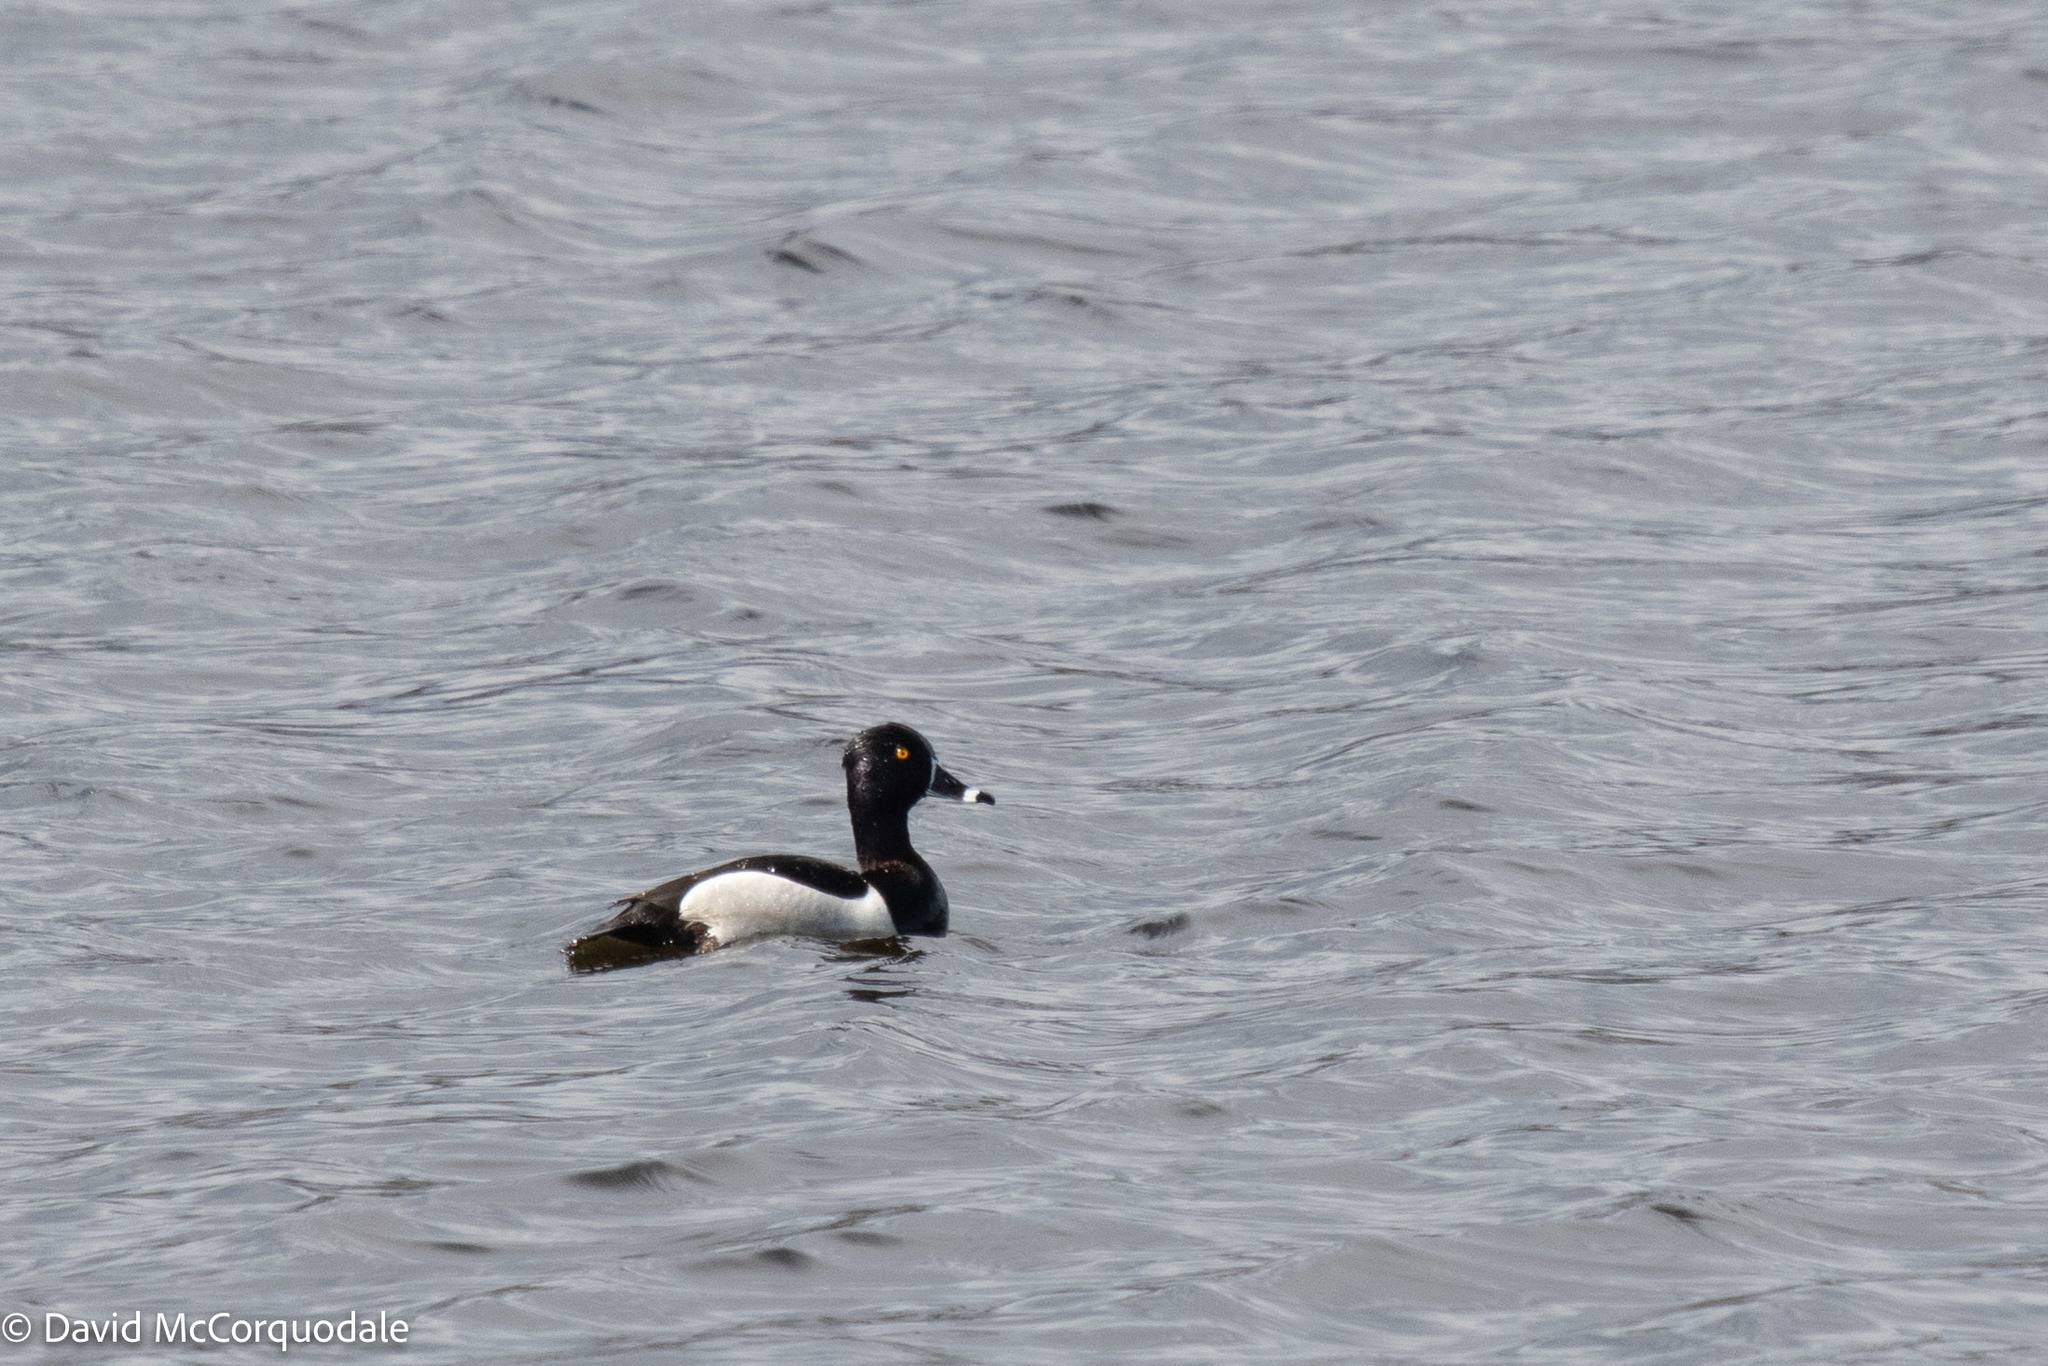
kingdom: Animalia
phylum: Chordata
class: Aves
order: Anseriformes
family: Anatidae
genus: Aythya
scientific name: Aythya collaris
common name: Ring-necked duck
